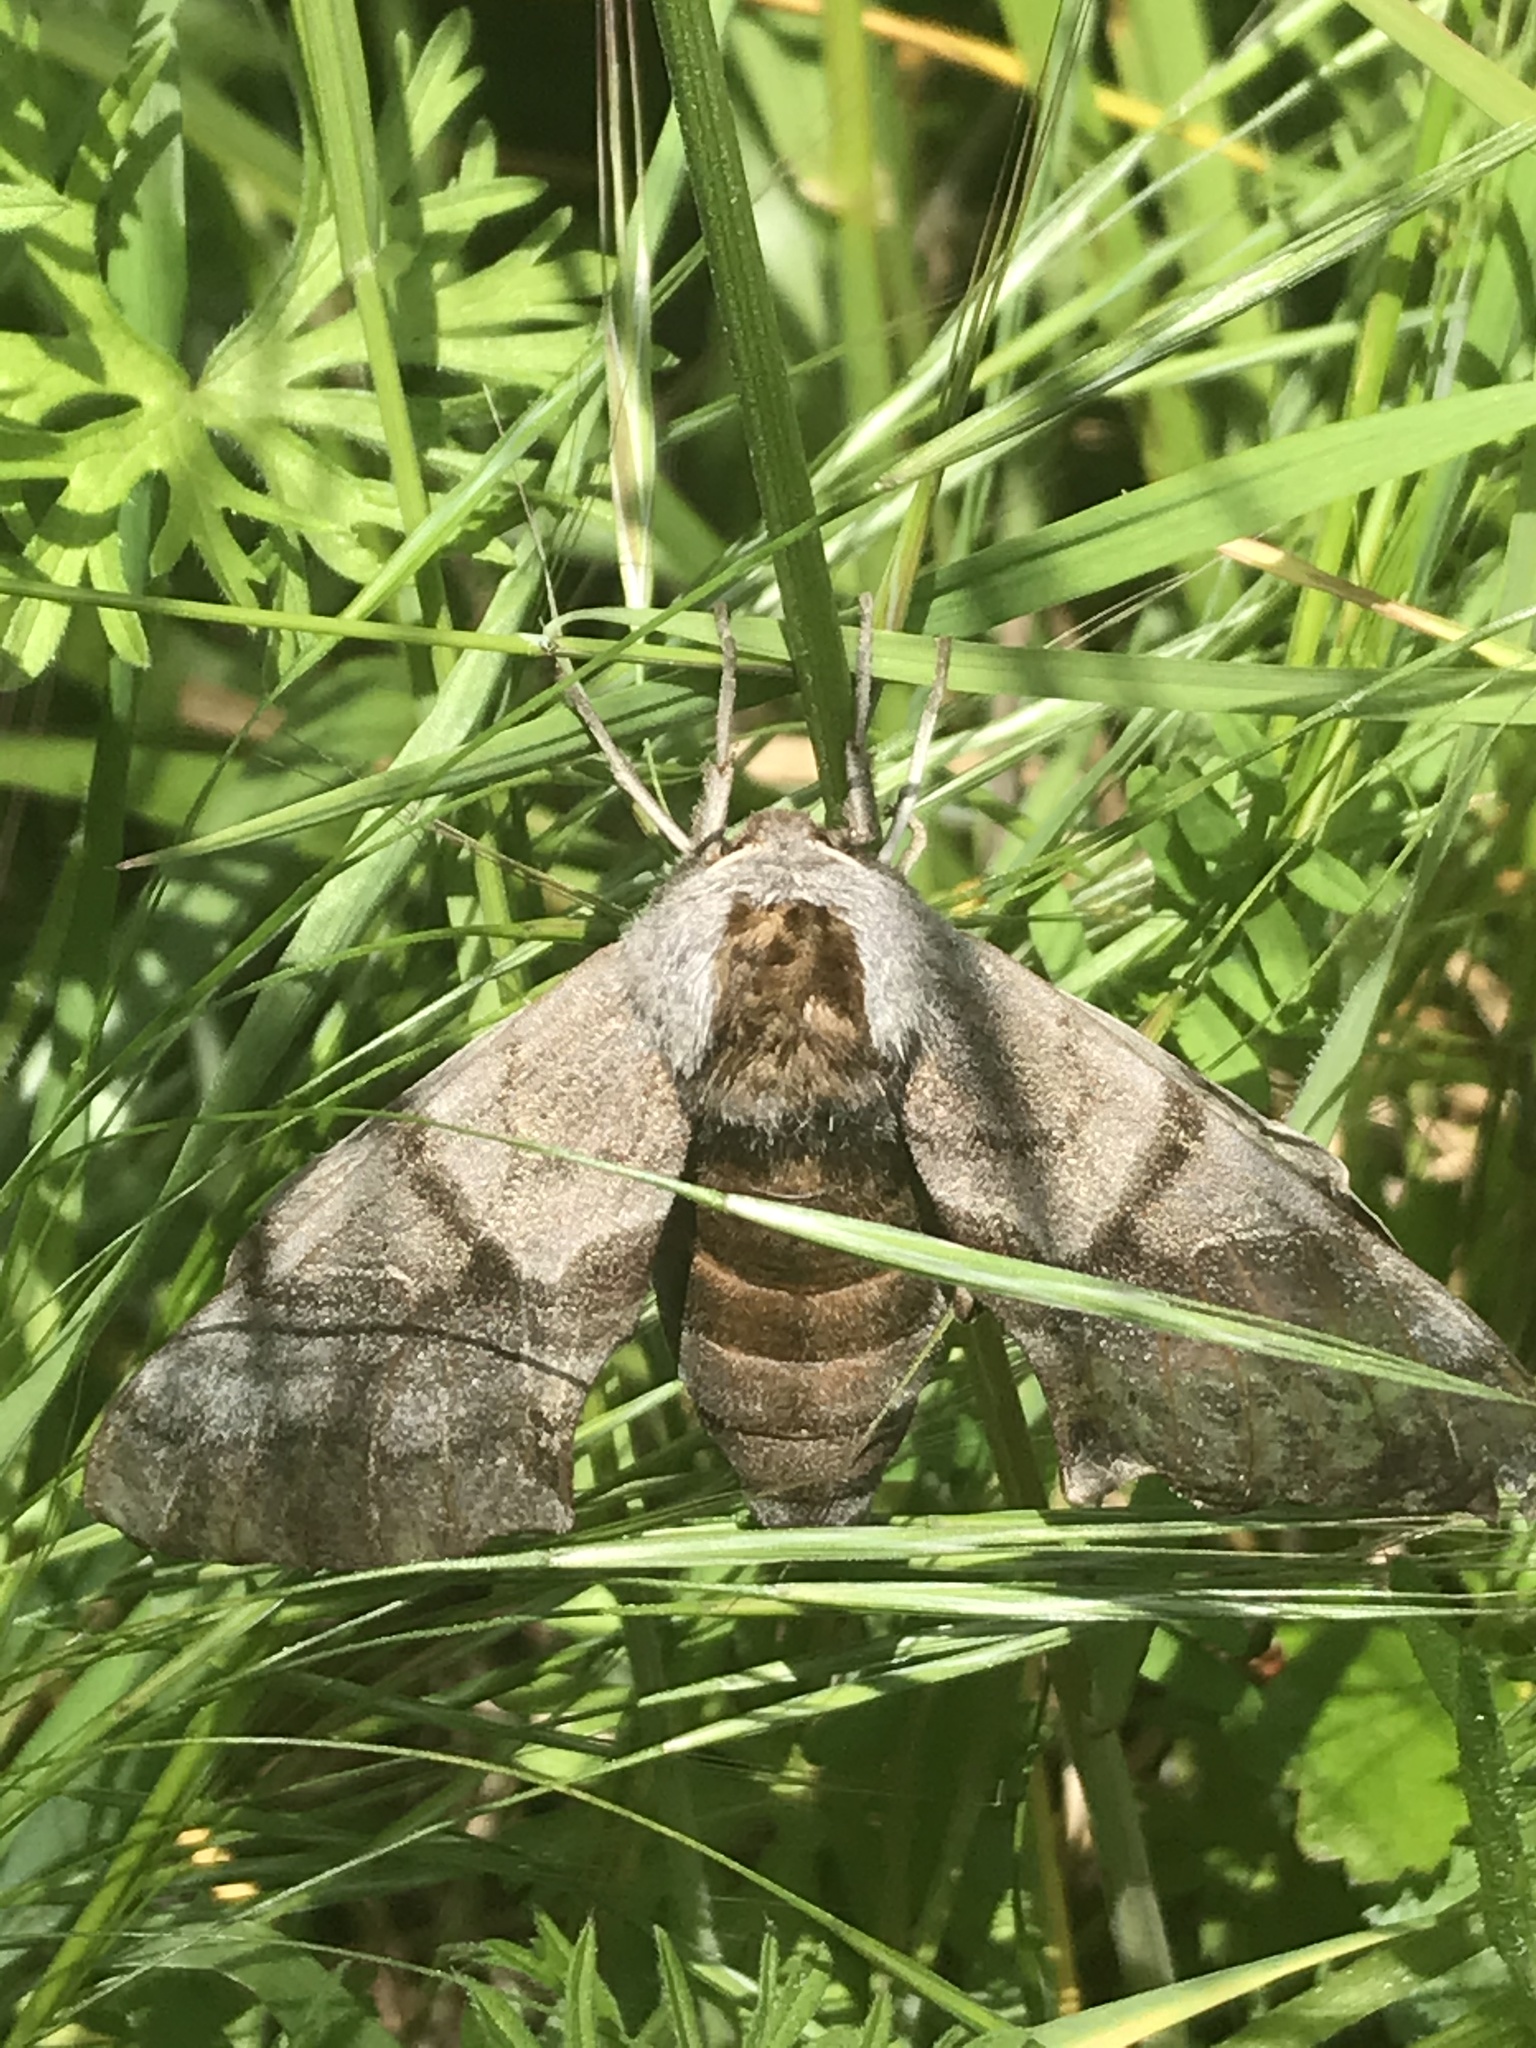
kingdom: Animalia
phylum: Arthropoda
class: Insecta
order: Lepidoptera
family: Sphingidae
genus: Smerinthus
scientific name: Smerinthus cerisyi
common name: Cerisy's sphinx moth
